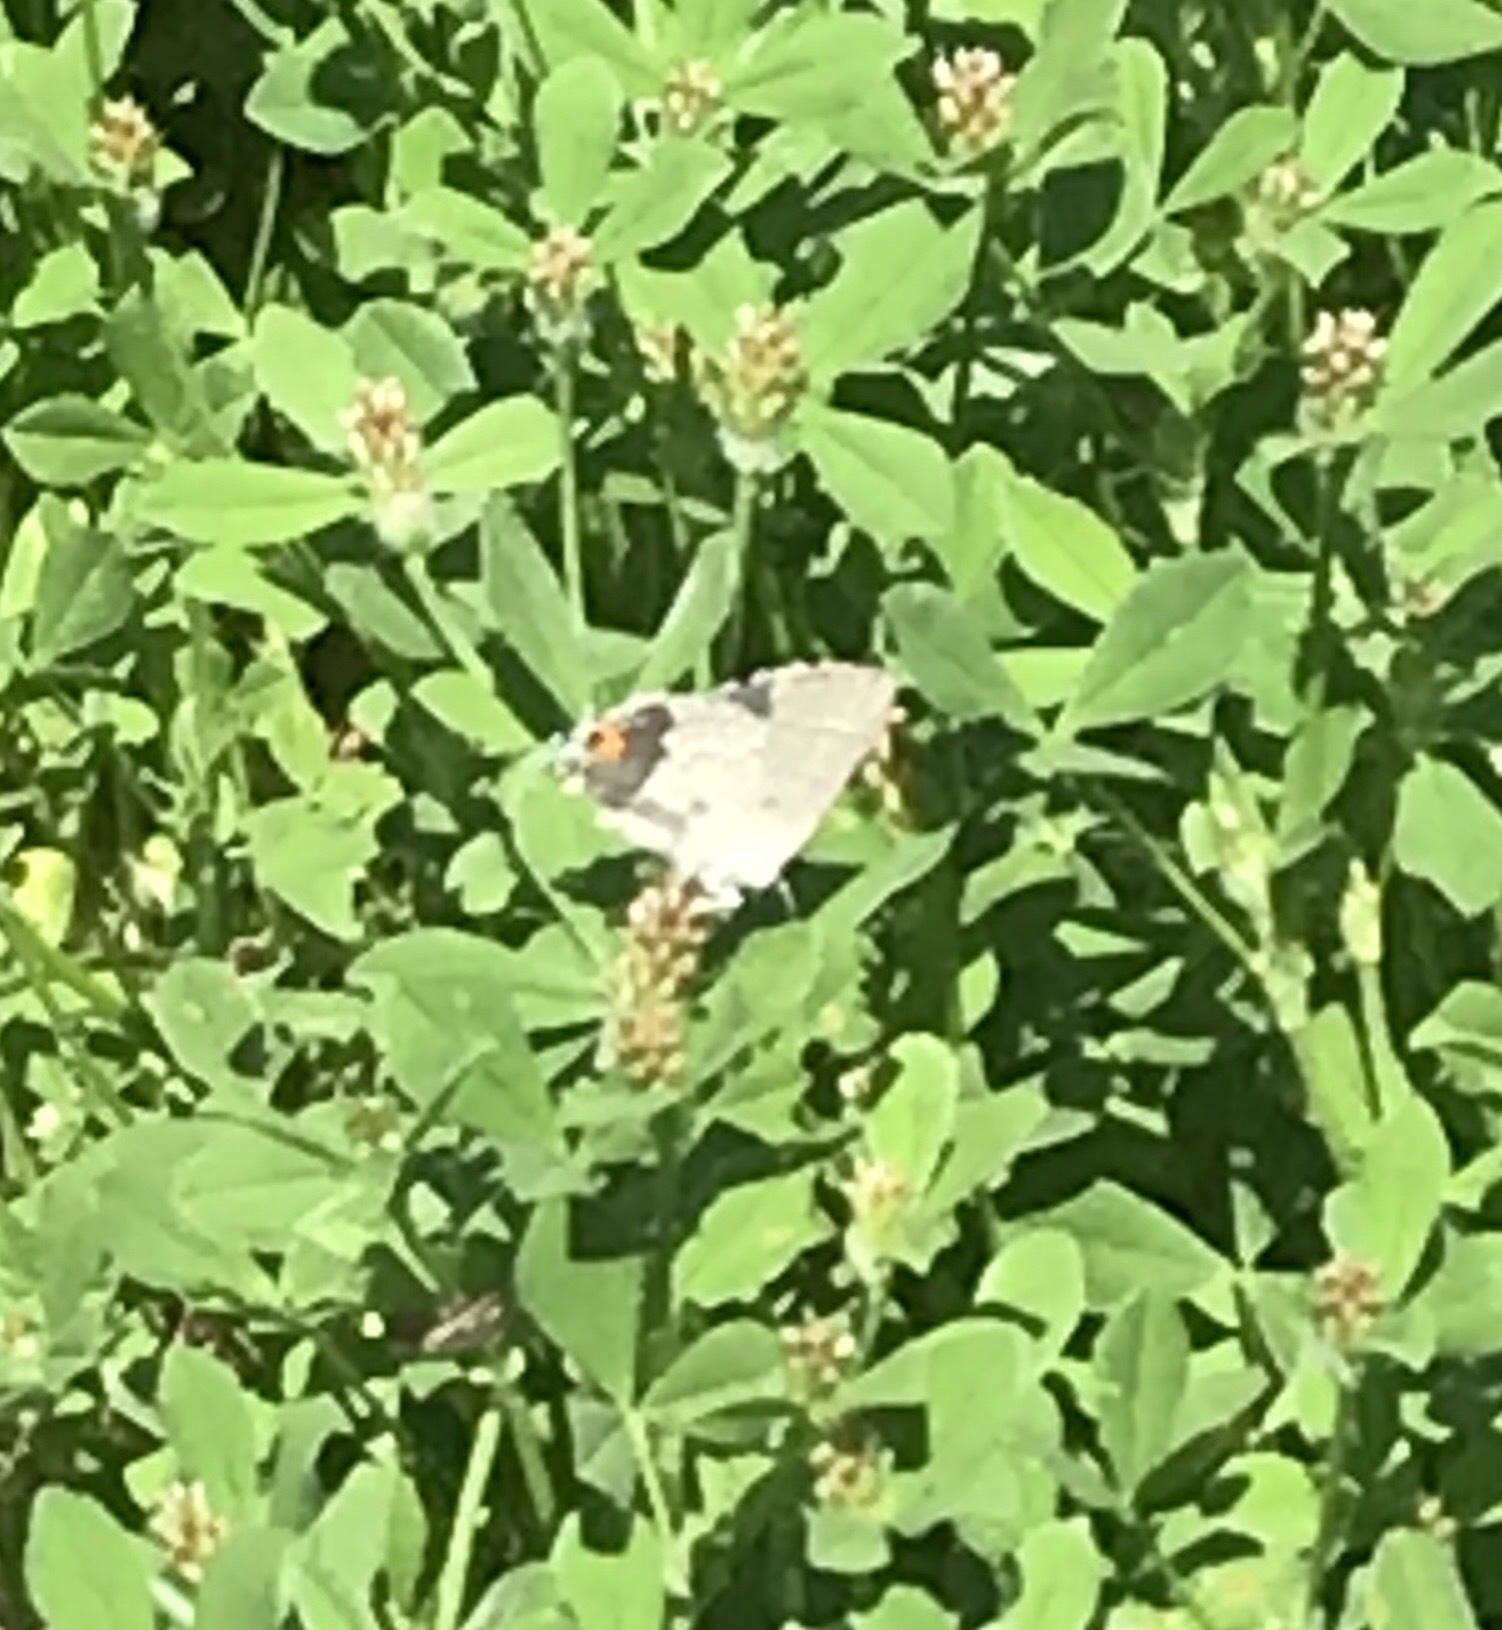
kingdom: Animalia
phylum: Arthropoda
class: Insecta
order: Lepidoptera
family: Lycaenidae
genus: Strymon
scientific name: Strymon melinus
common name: Gray hairstreak
